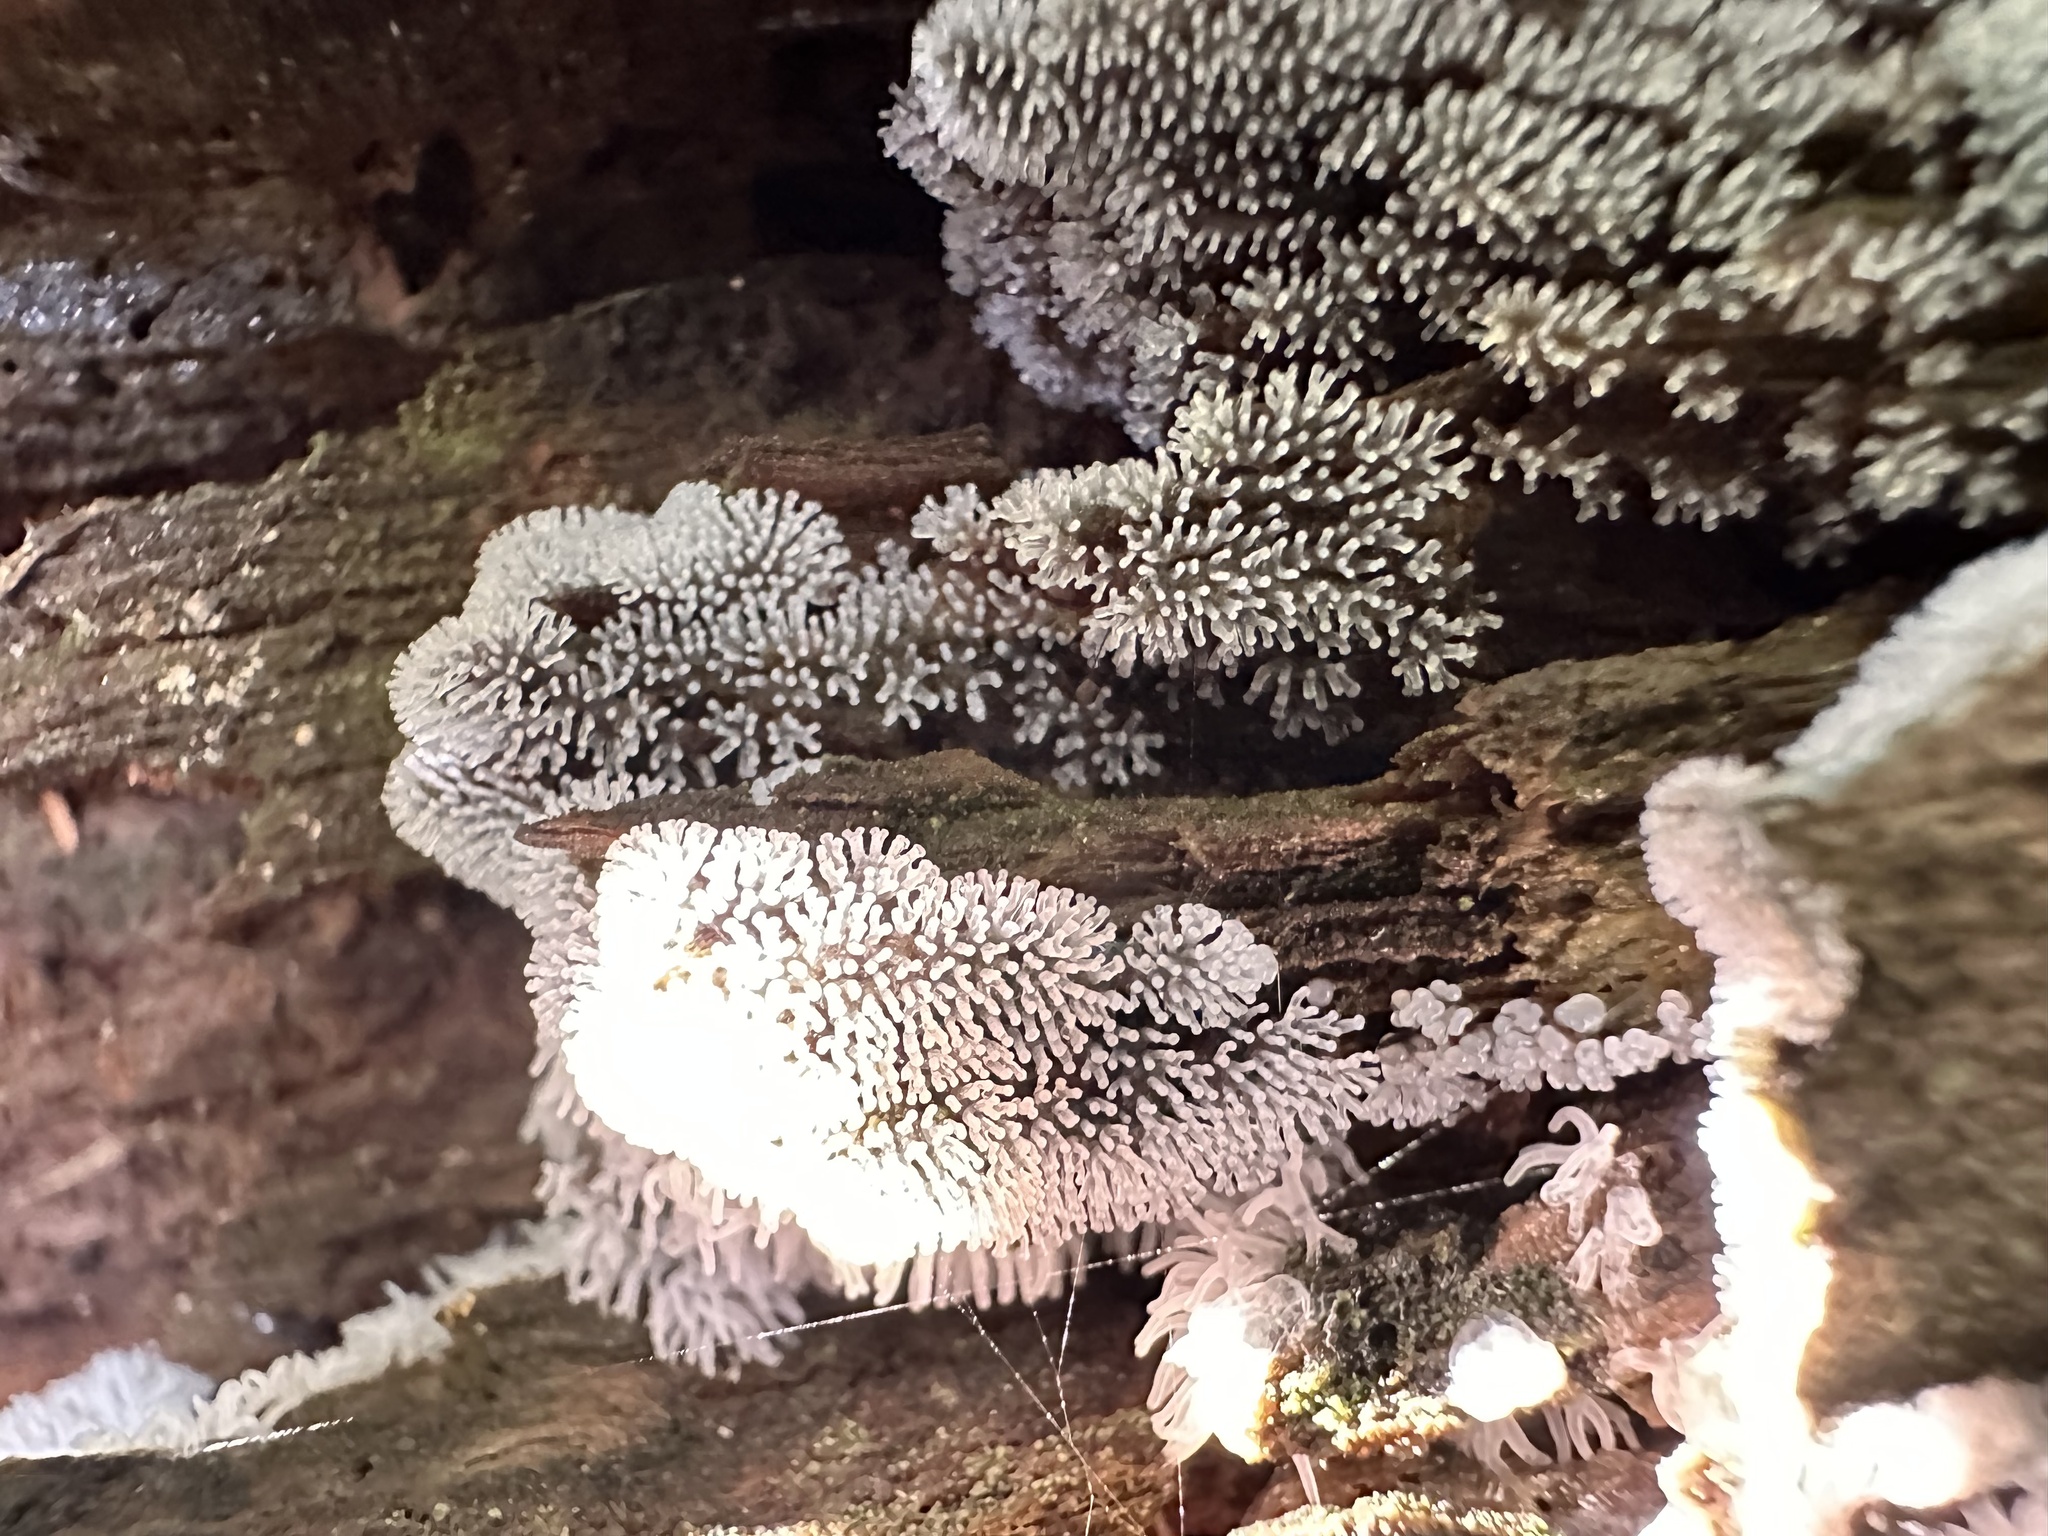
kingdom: Protozoa
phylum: Mycetozoa
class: Protosteliomycetes
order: Ceratiomyxales
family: Ceratiomyxaceae
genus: Ceratiomyxa
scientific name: Ceratiomyxa fruticulosa
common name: Honeycomb coral slime mold
